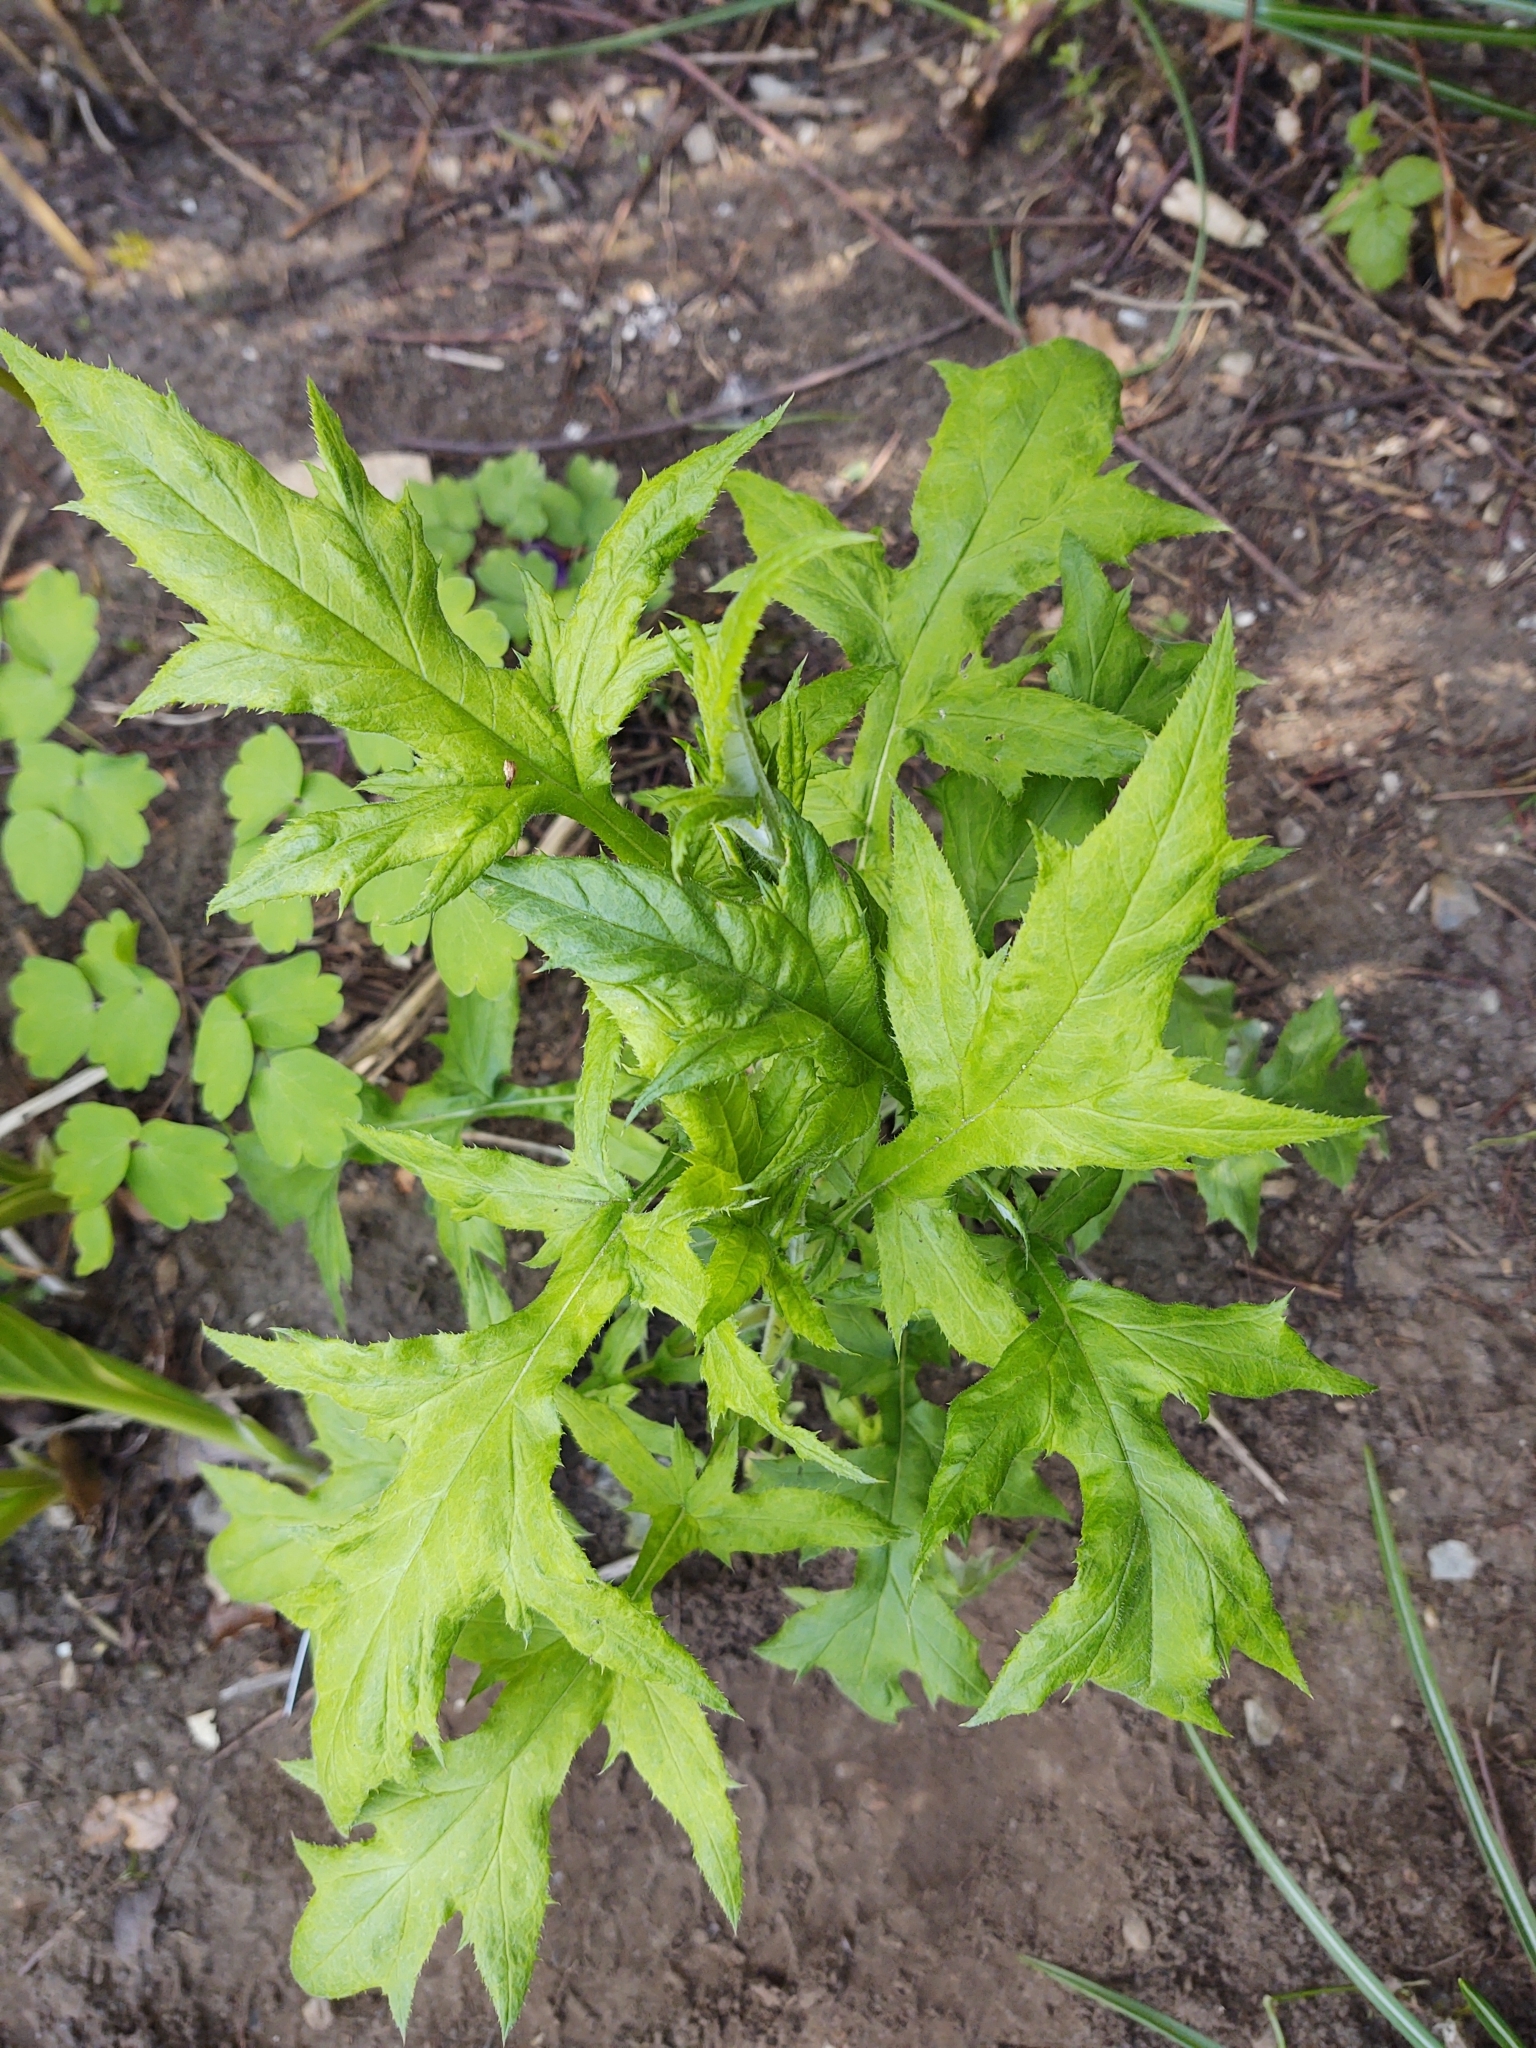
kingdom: Plantae
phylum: Tracheophyta
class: Magnoliopsida
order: Asterales
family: Asteraceae
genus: Echinops
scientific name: Echinops bannaticus
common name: Blue globe-thistle
